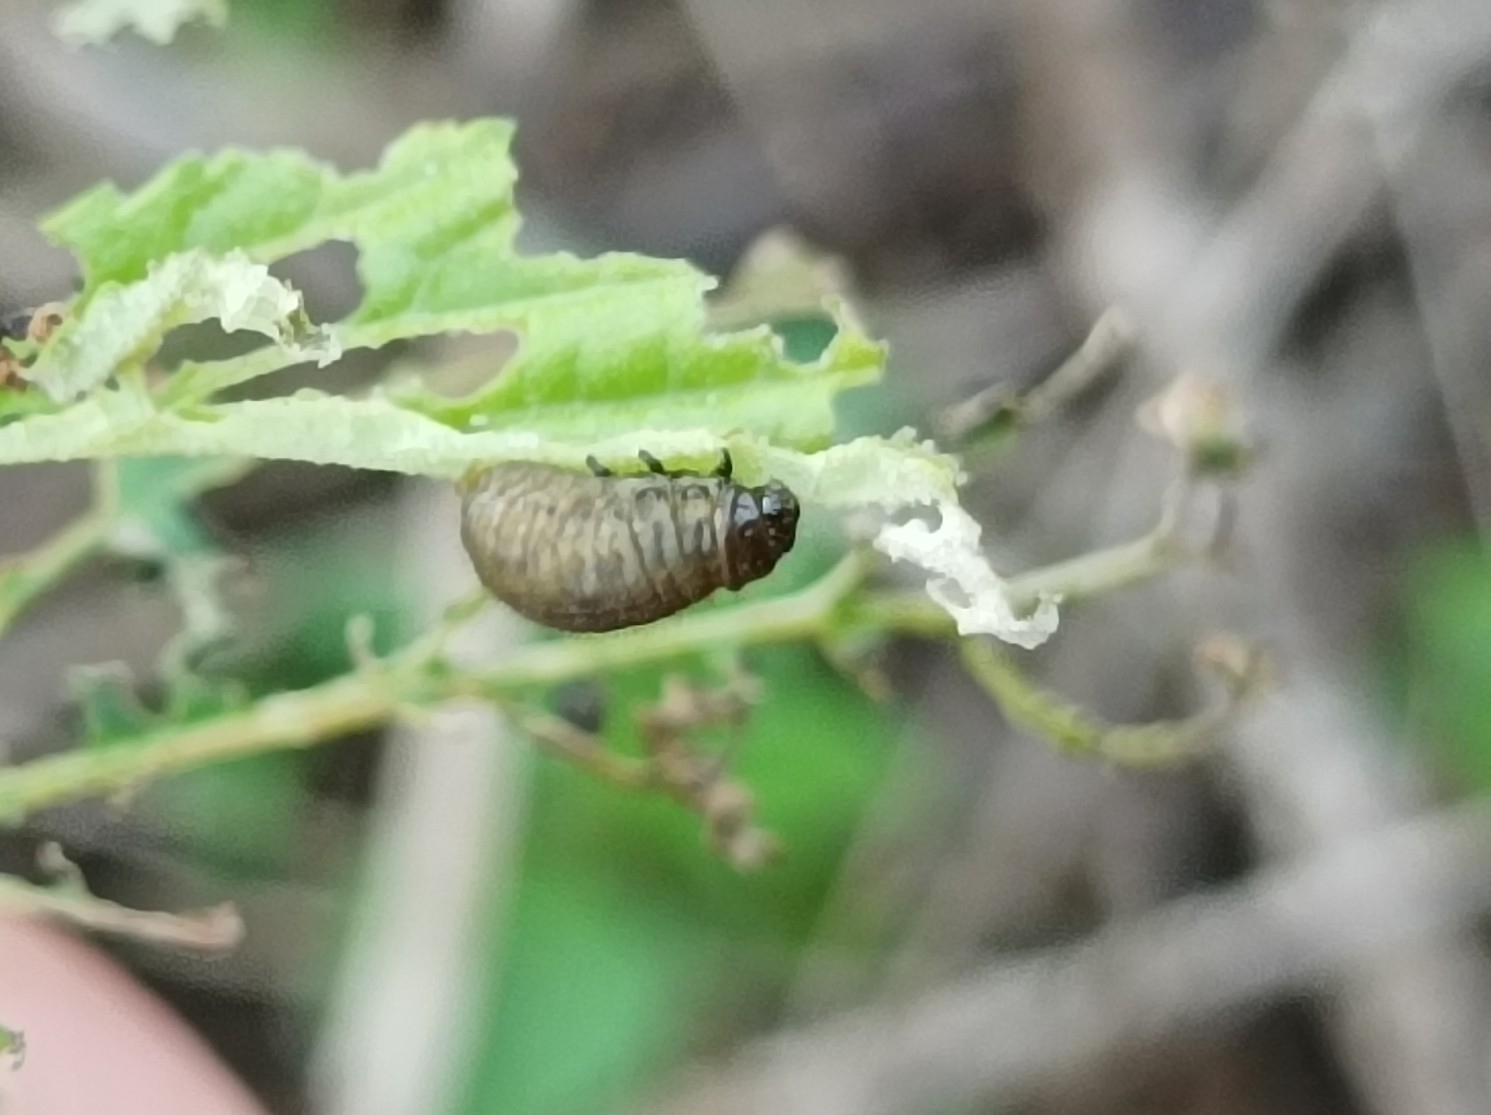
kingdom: Animalia
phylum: Arthropoda
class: Insecta
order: Coleoptera
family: Chrysomelidae
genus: Calligrapha
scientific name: Calligrapha pantherina
